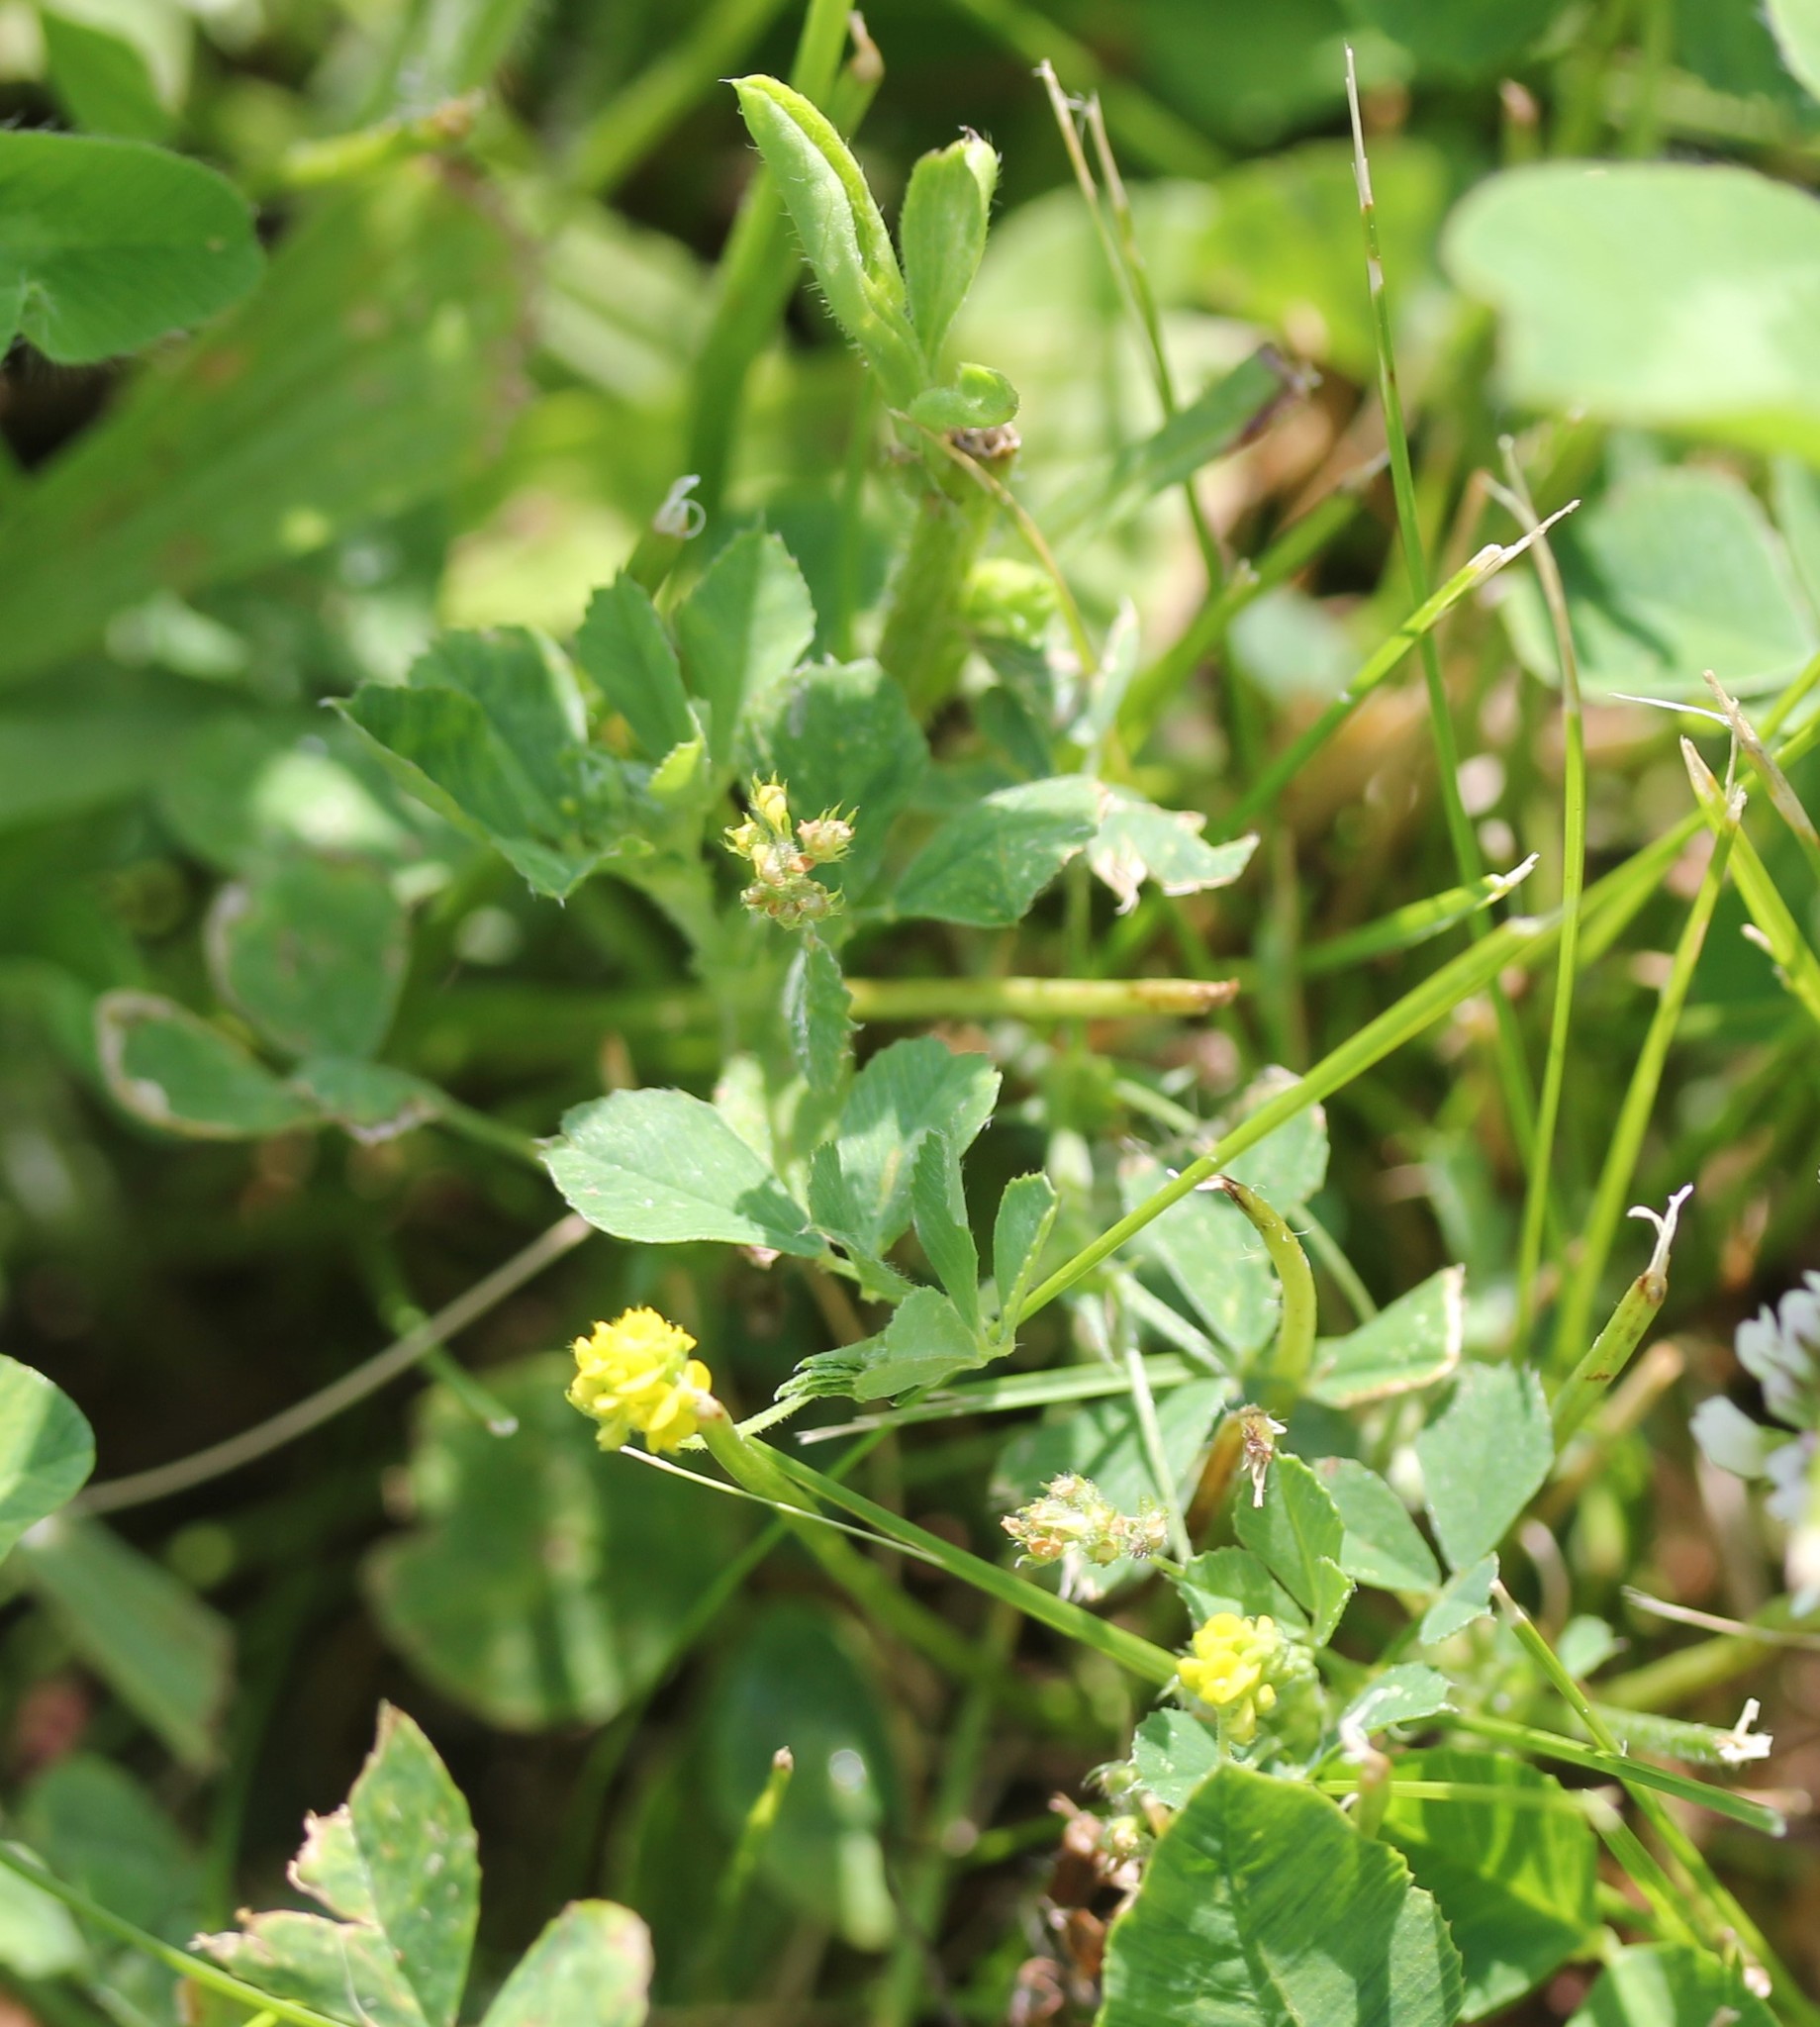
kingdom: Plantae
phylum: Tracheophyta
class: Magnoliopsida
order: Fabales
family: Fabaceae
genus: Medicago
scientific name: Medicago lupulina
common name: Black medick
